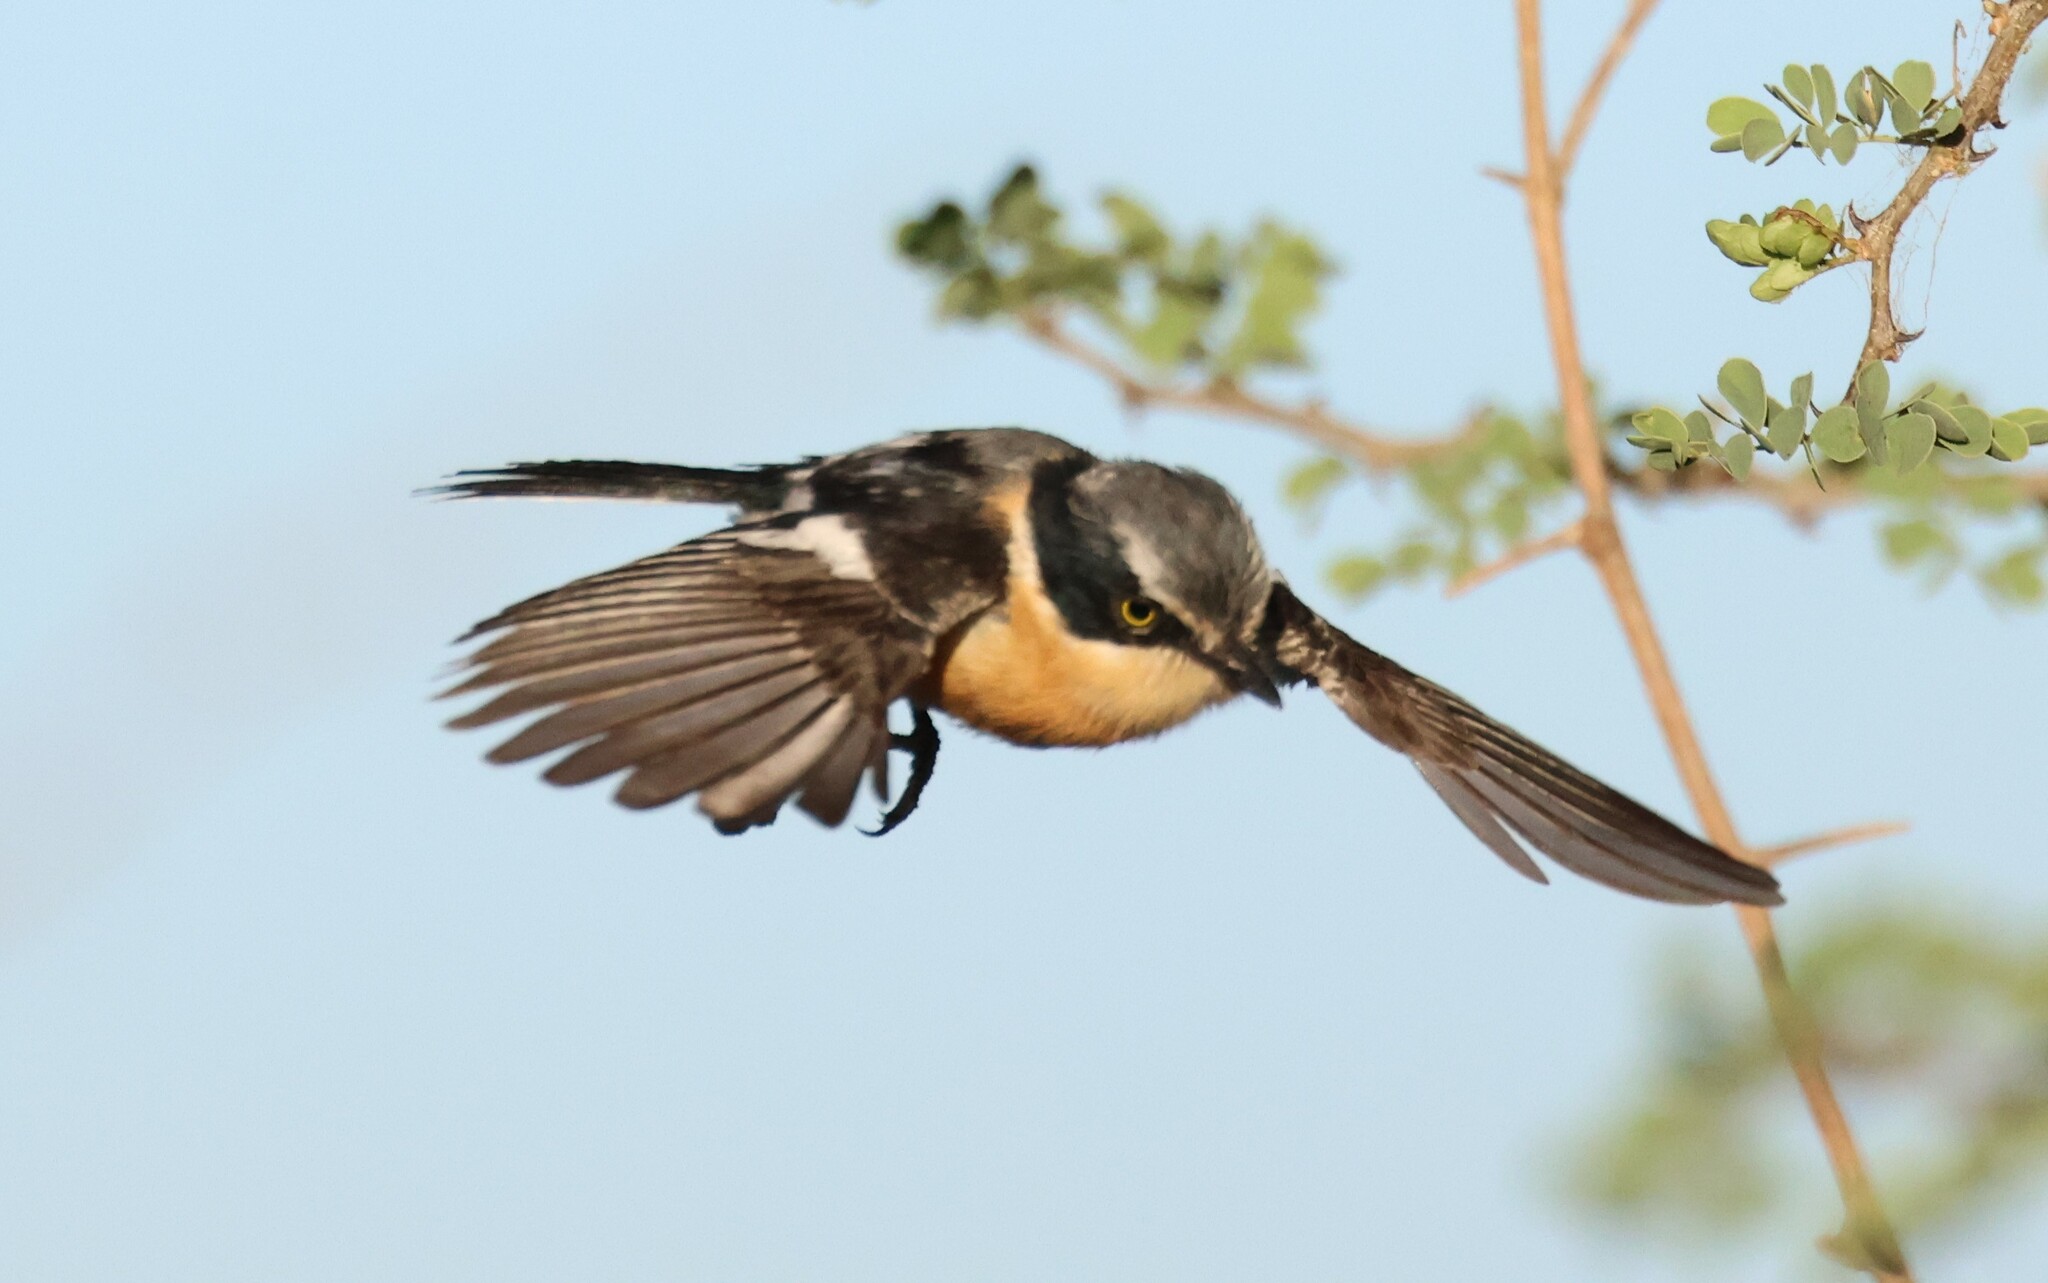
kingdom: Animalia
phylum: Chordata
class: Aves
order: Passeriformes
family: Platysteiridae
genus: Batis
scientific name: Batis pririt
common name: Pririt batis
